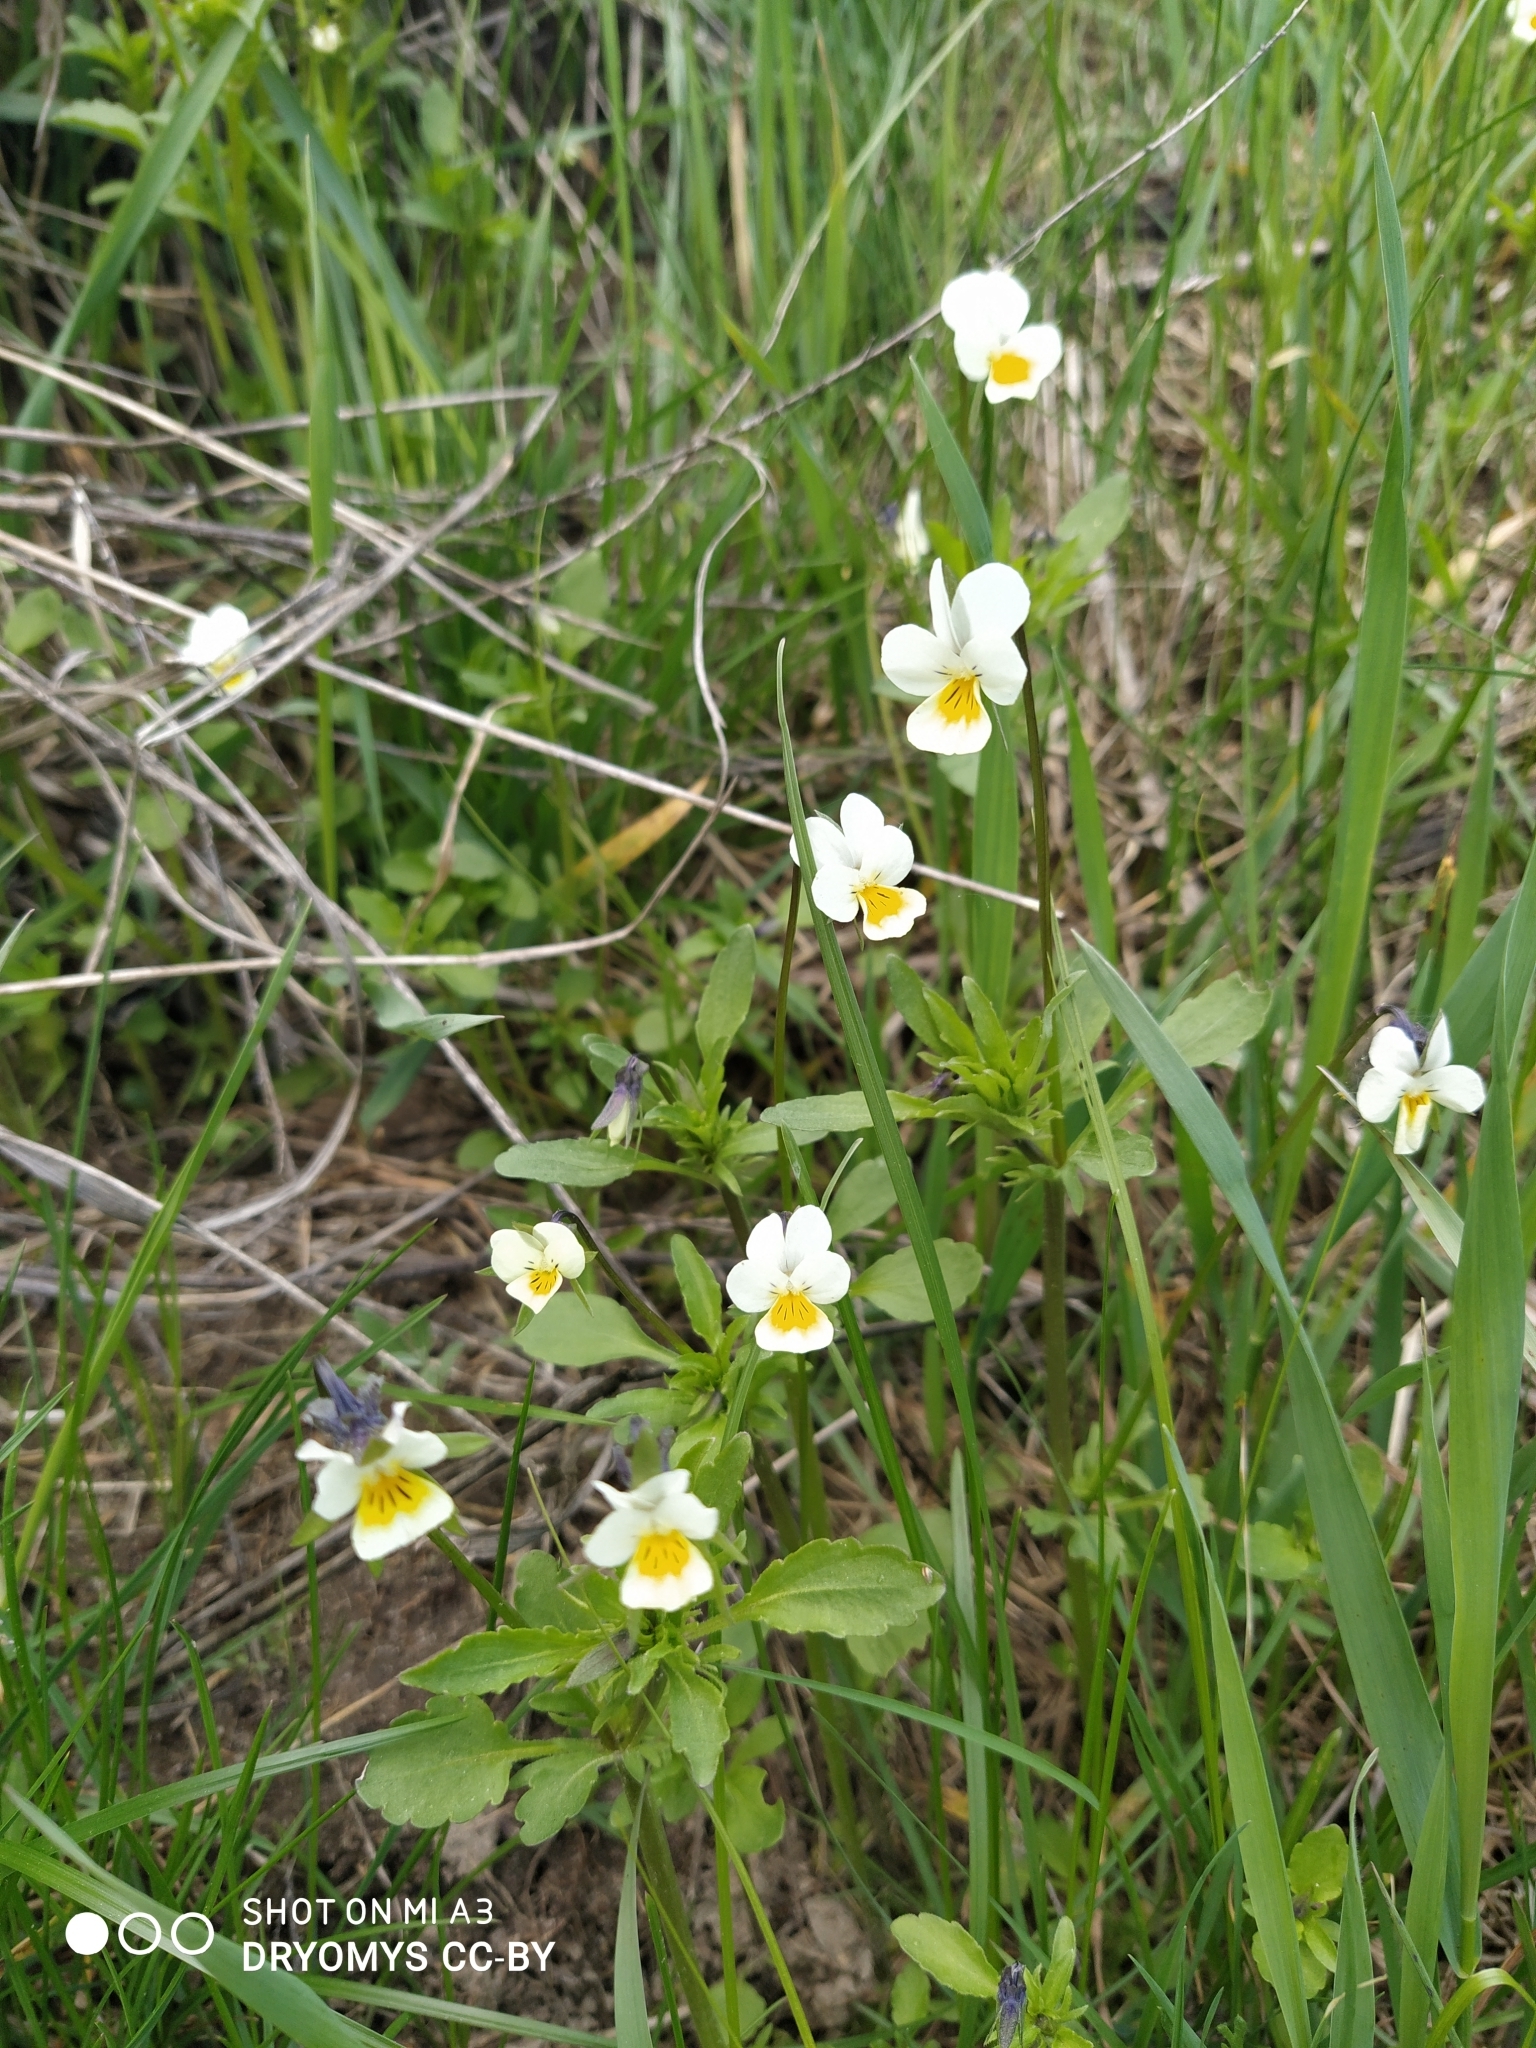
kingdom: Plantae
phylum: Tracheophyta
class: Magnoliopsida
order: Malpighiales
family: Violaceae
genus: Viola
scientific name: Viola arvensis
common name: Field pansy
